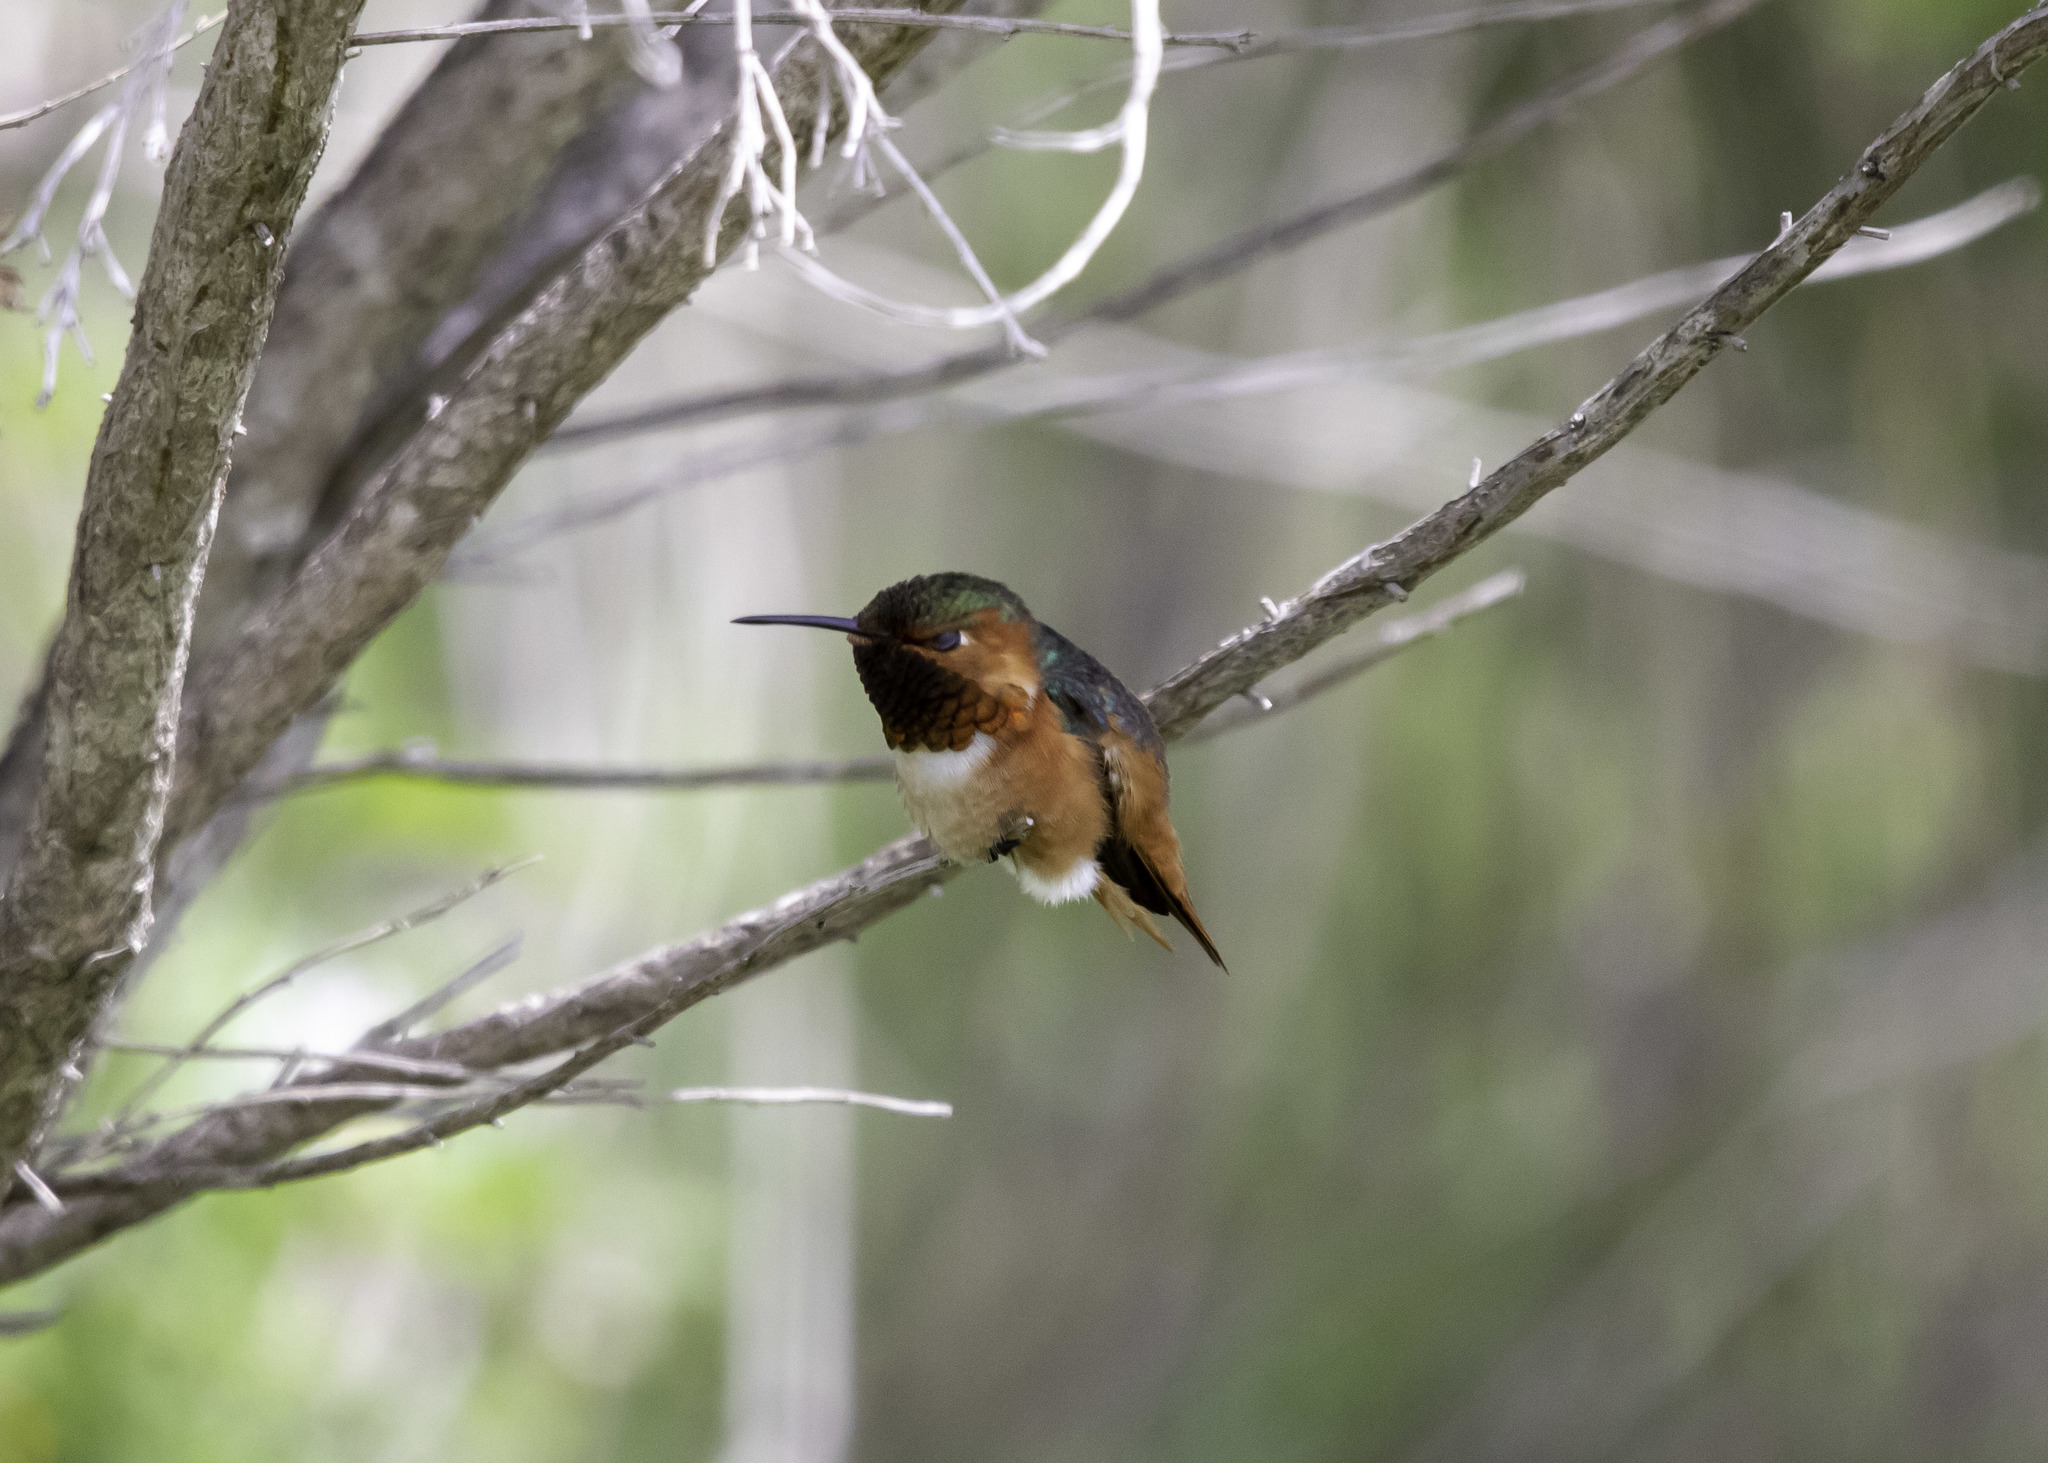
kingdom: Animalia
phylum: Chordata
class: Aves
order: Apodiformes
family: Trochilidae
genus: Selasphorus
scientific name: Selasphorus sasin
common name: Allen's hummingbird
